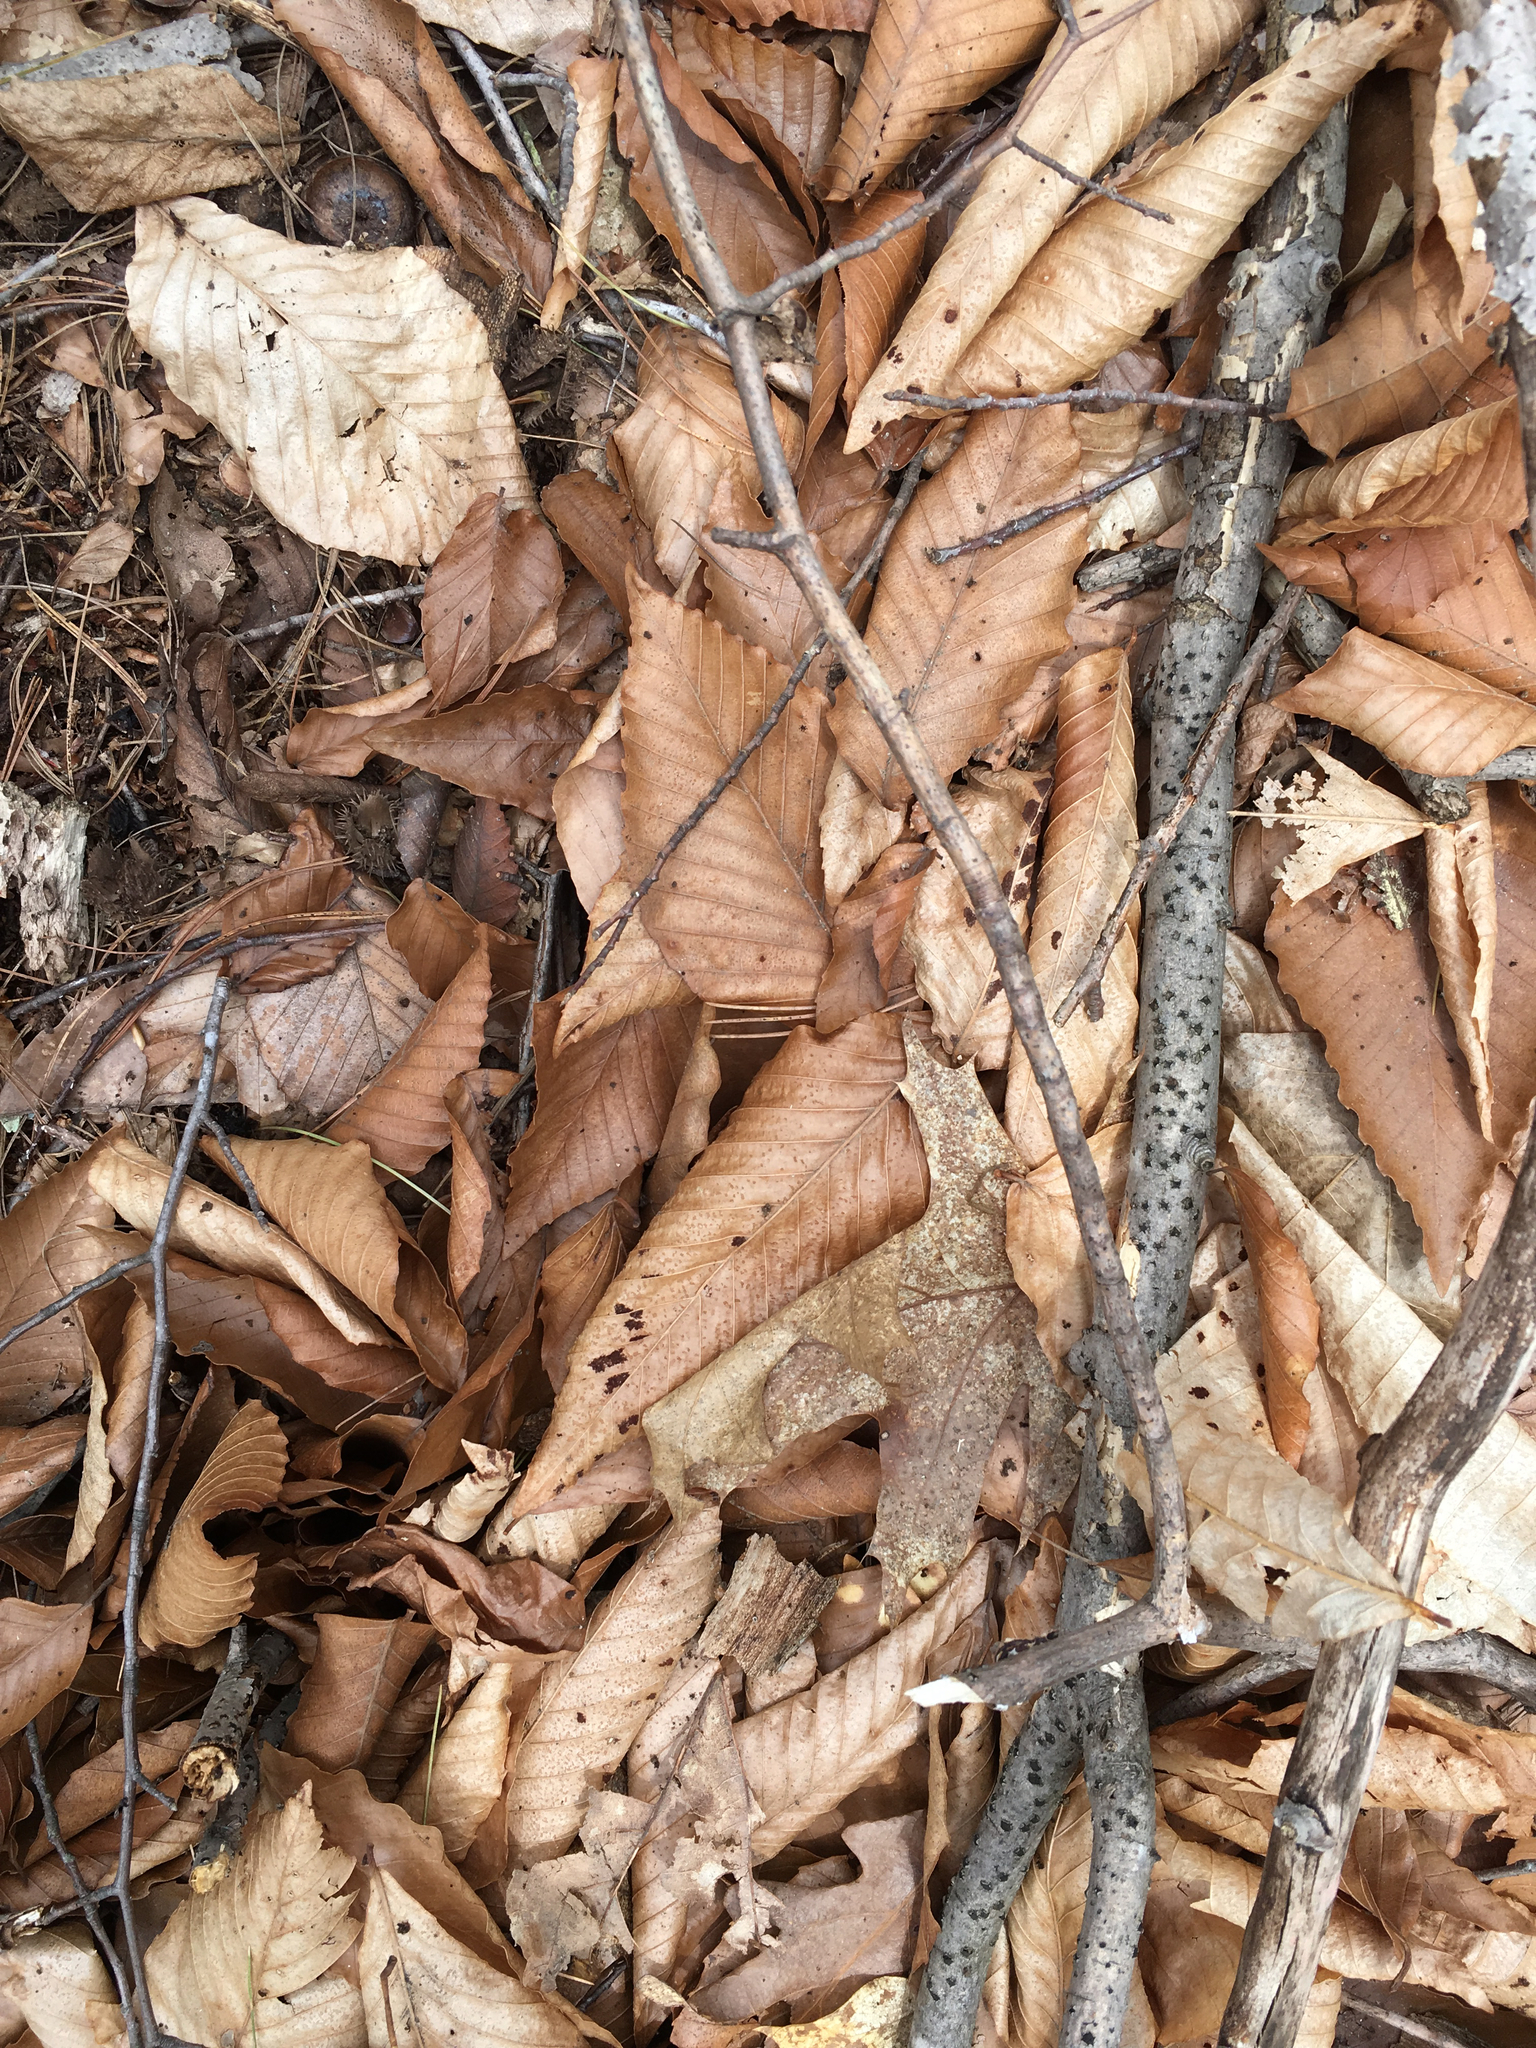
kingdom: Plantae
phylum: Tracheophyta
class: Magnoliopsida
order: Fagales
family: Fagaceae
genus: Fagus
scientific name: Fagus grandifolia
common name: American beech
